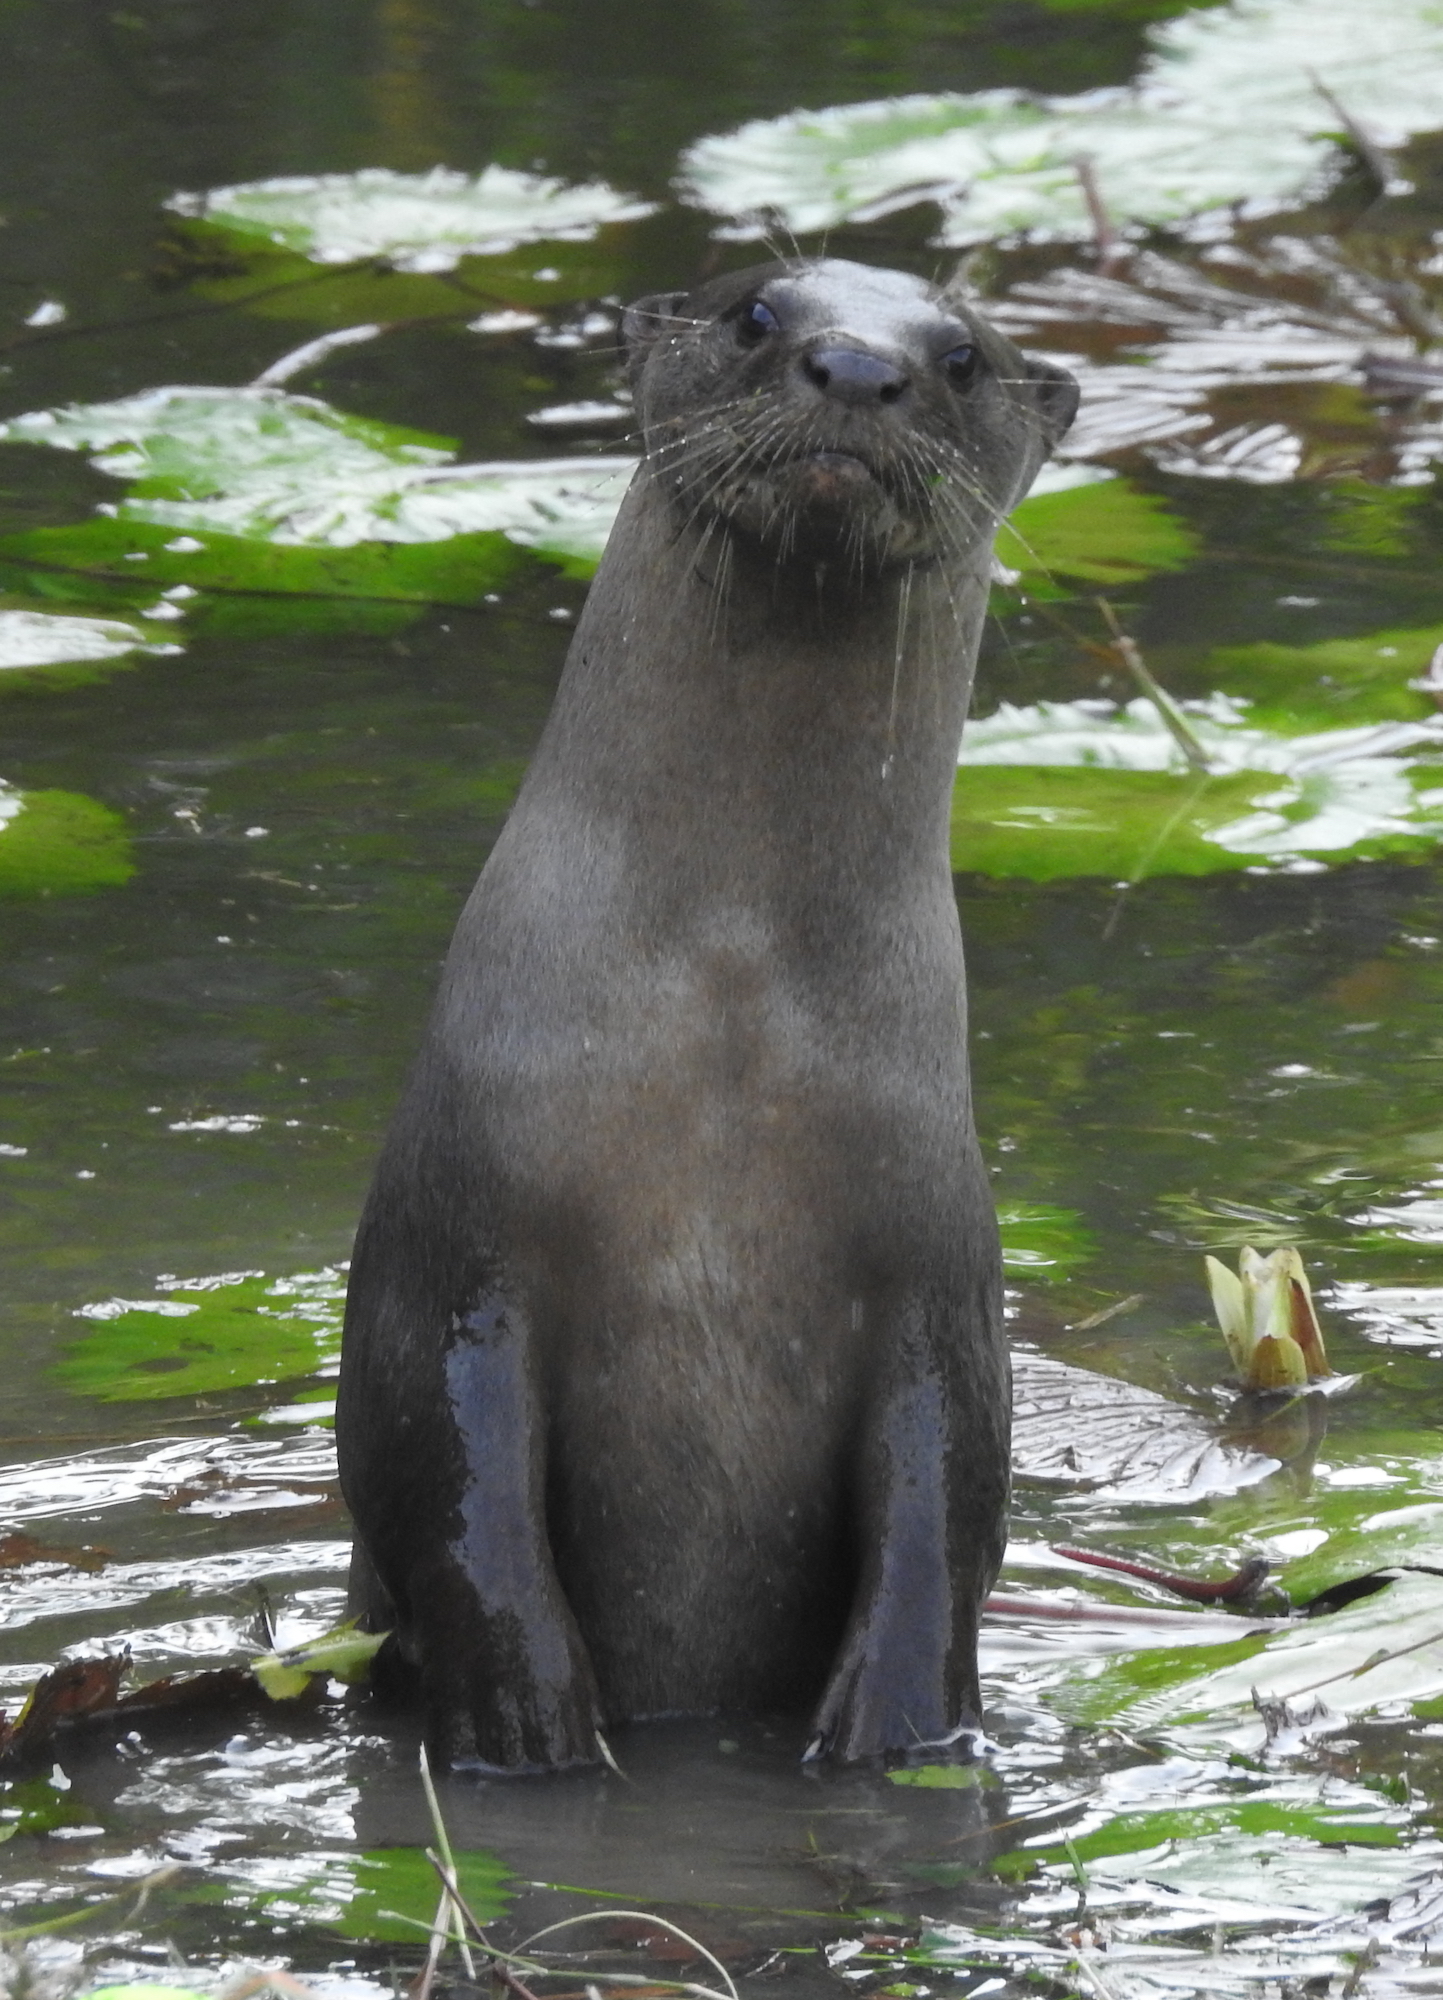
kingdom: Animalia
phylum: Chordata
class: Mammalia
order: Carnivora
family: Mustelidae
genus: Lutrogale
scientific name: Lutrogale perspicillata
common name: Smooth-coated otter
